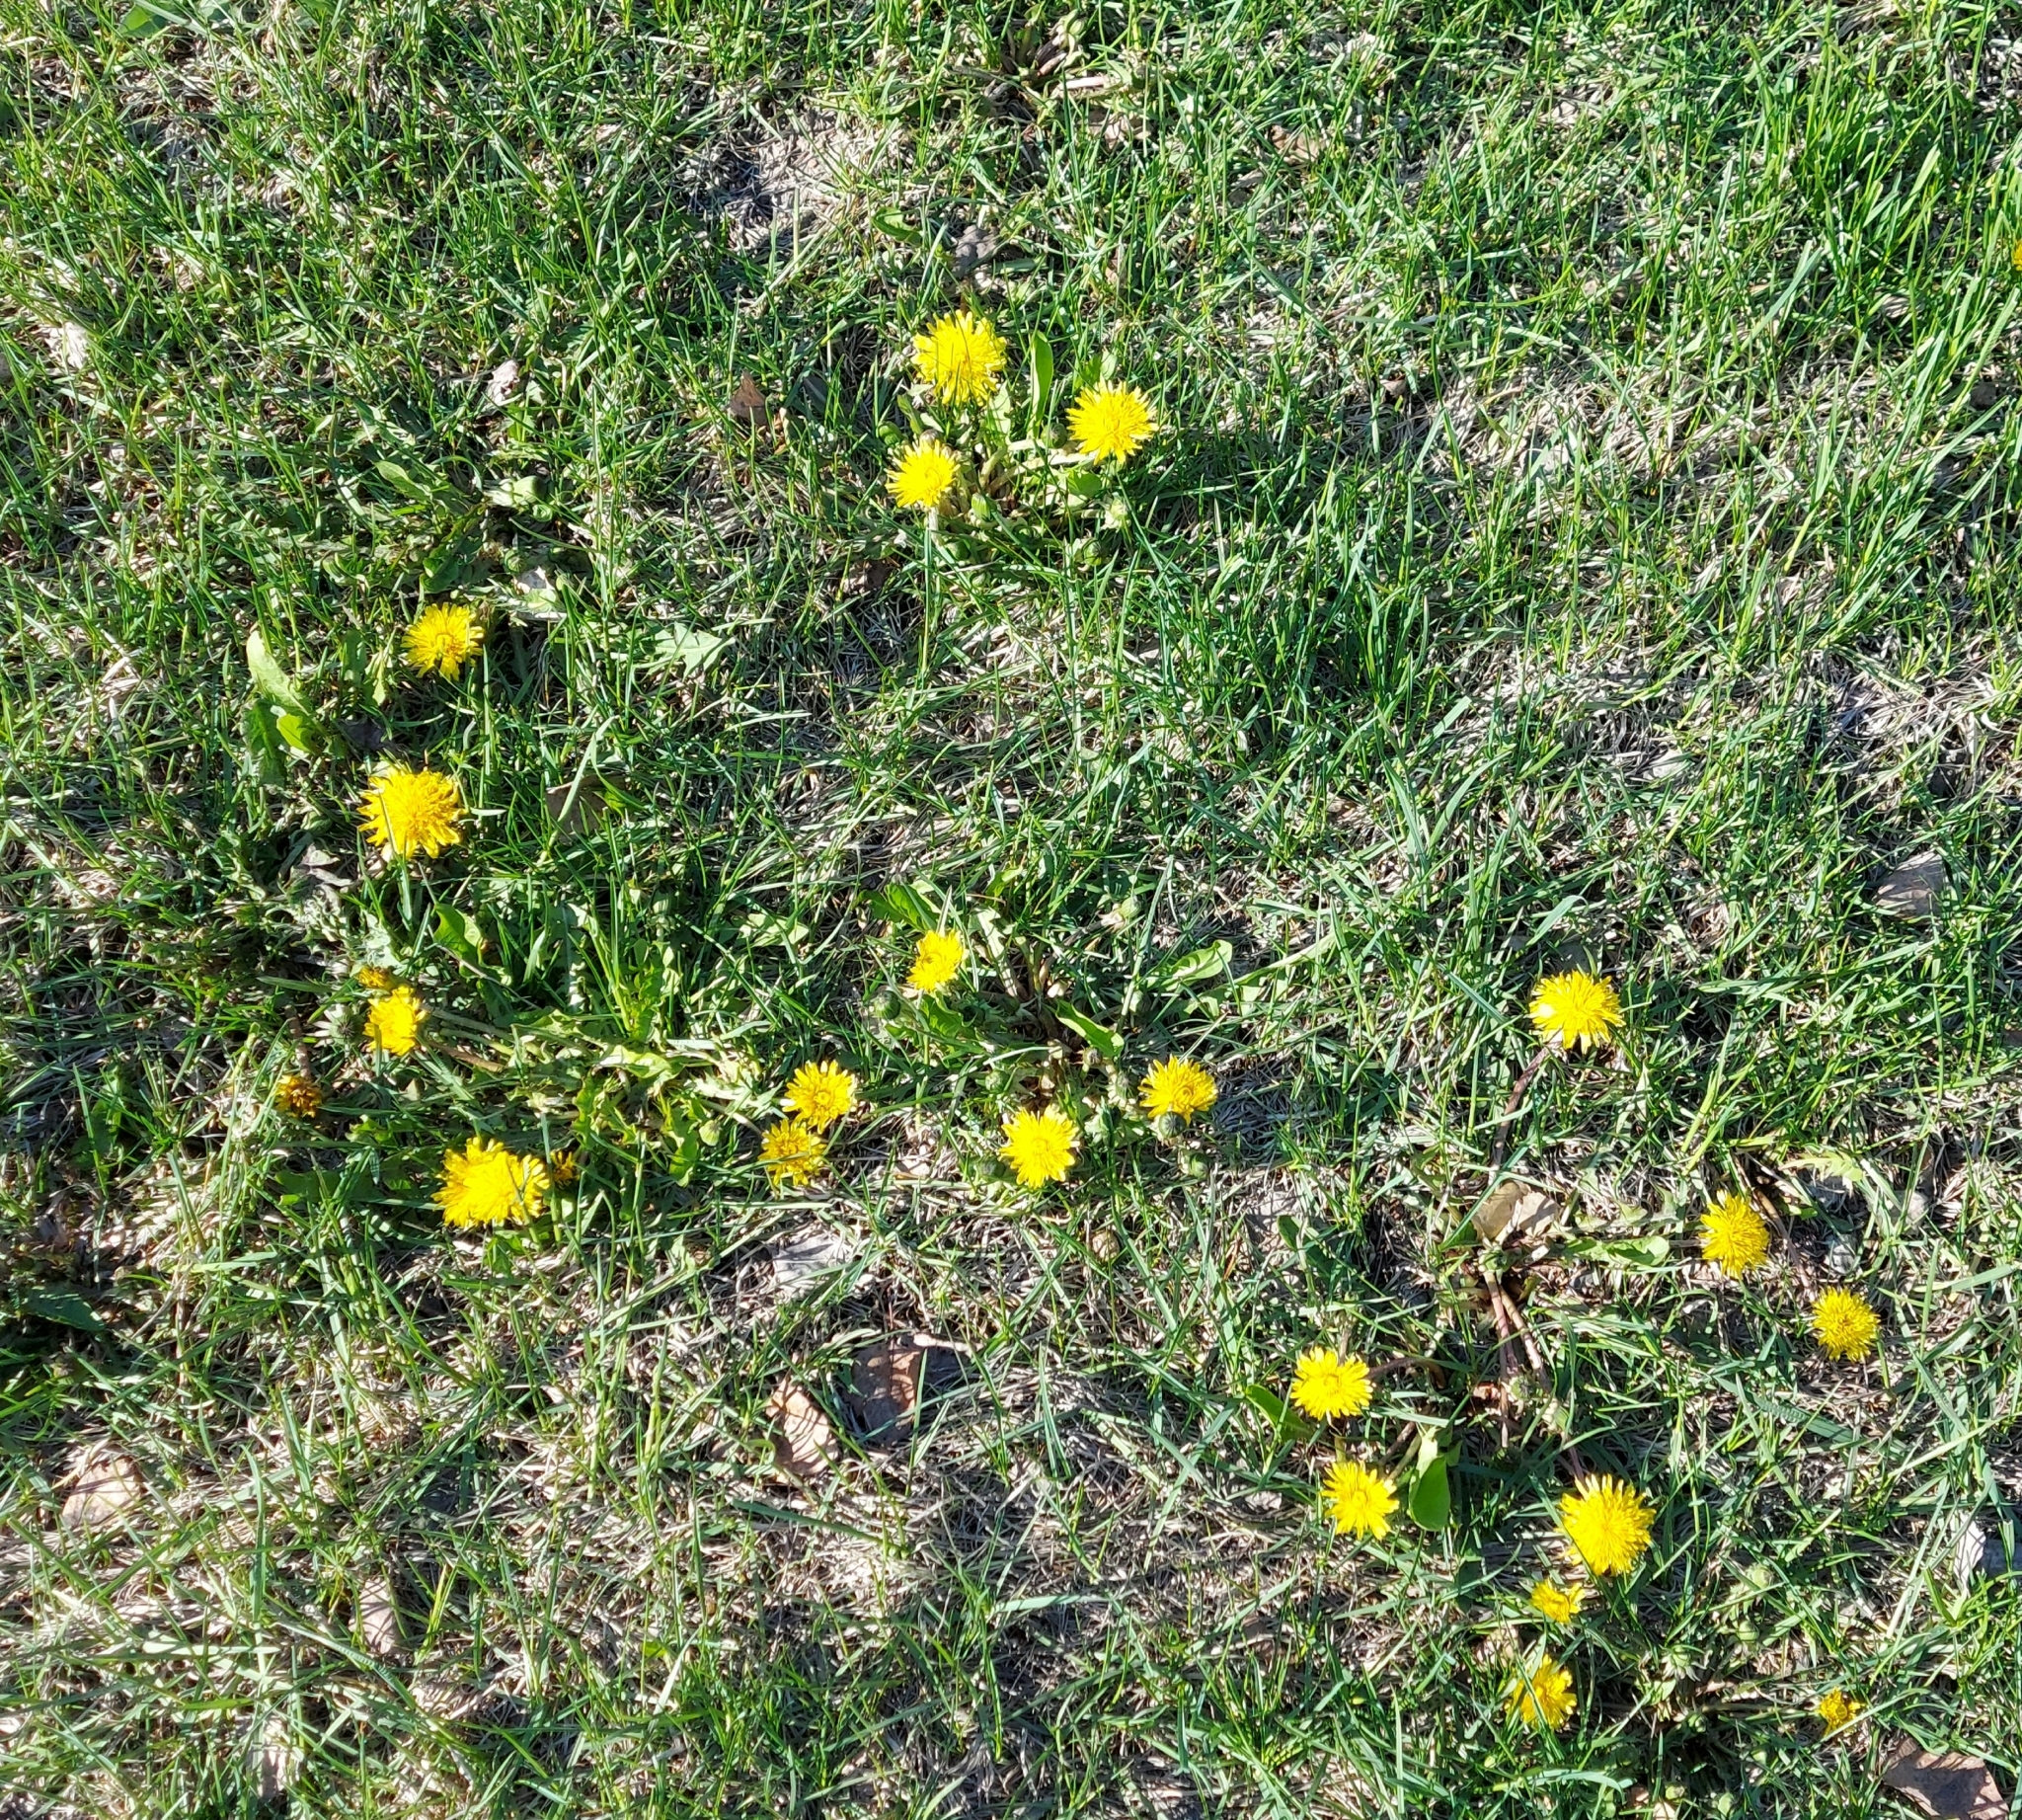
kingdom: Plantae
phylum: Tracheophyta
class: Magnoliopsida
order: Asterales
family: Asteraceae
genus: Taraxacum
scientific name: Taraxacum officinale
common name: Common dandelion
